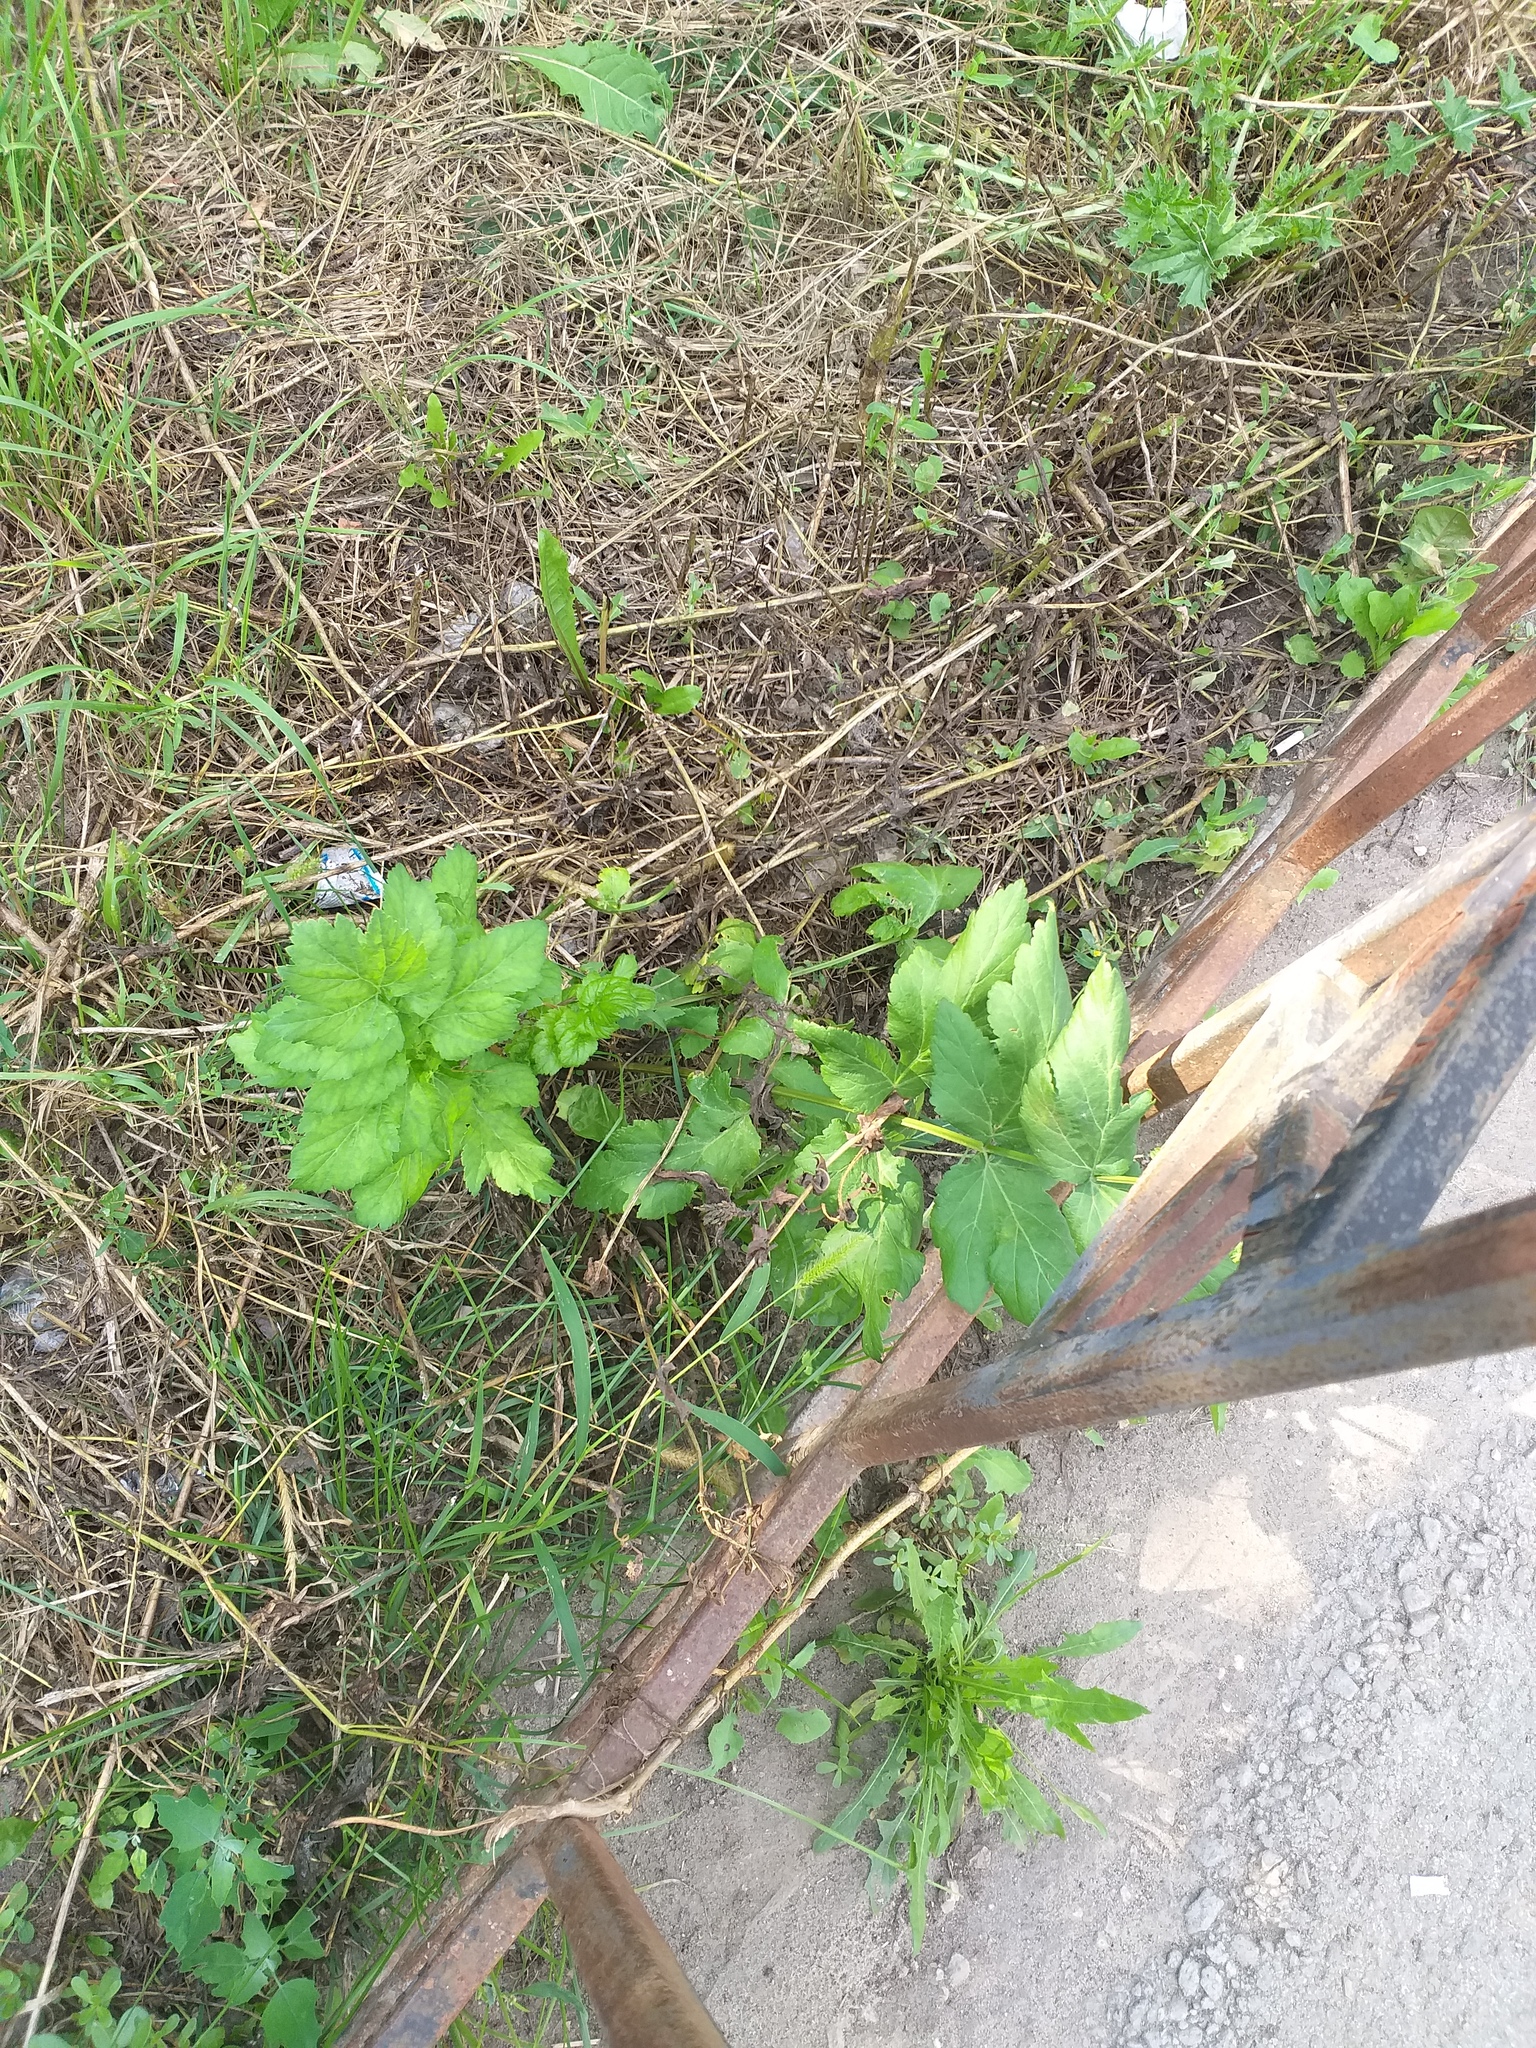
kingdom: Plantae
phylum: Tracheophyta
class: Magnoliopsida
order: Apiales
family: Apiaceae
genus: Pastinaca
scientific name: Pastinaca sativa
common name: Wild parsnip
